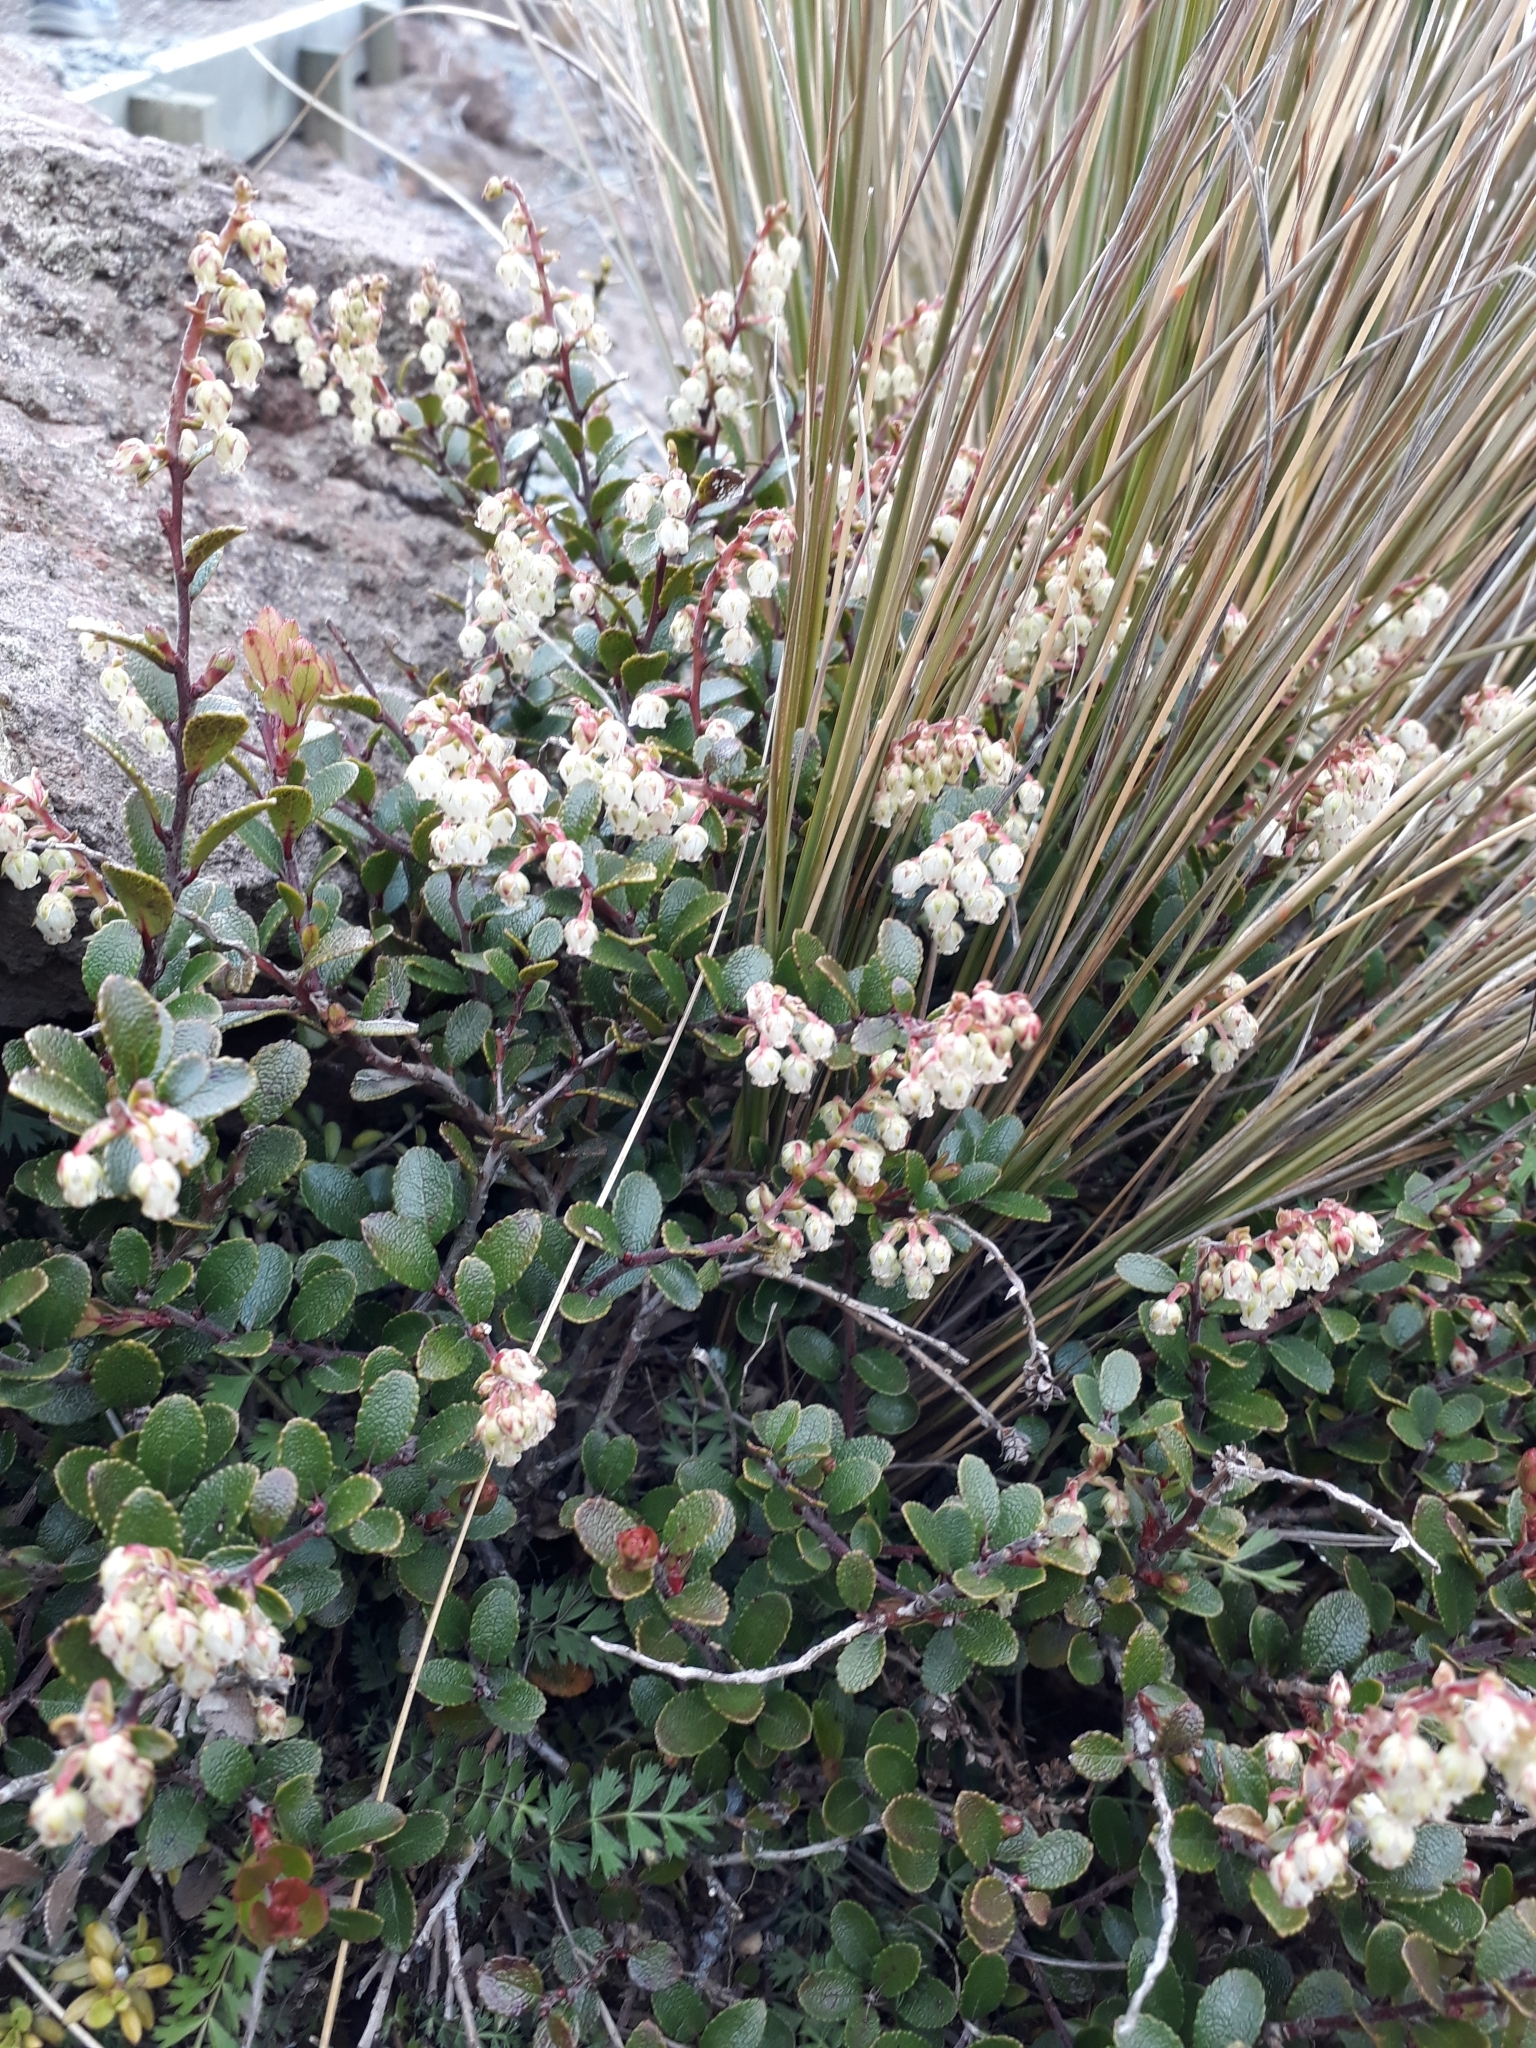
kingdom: Plantae
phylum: Tracheophyta
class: Magnoliopsida
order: Ericales
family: Ericaceae
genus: Gaultheria
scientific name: Gaultheria colensoi
